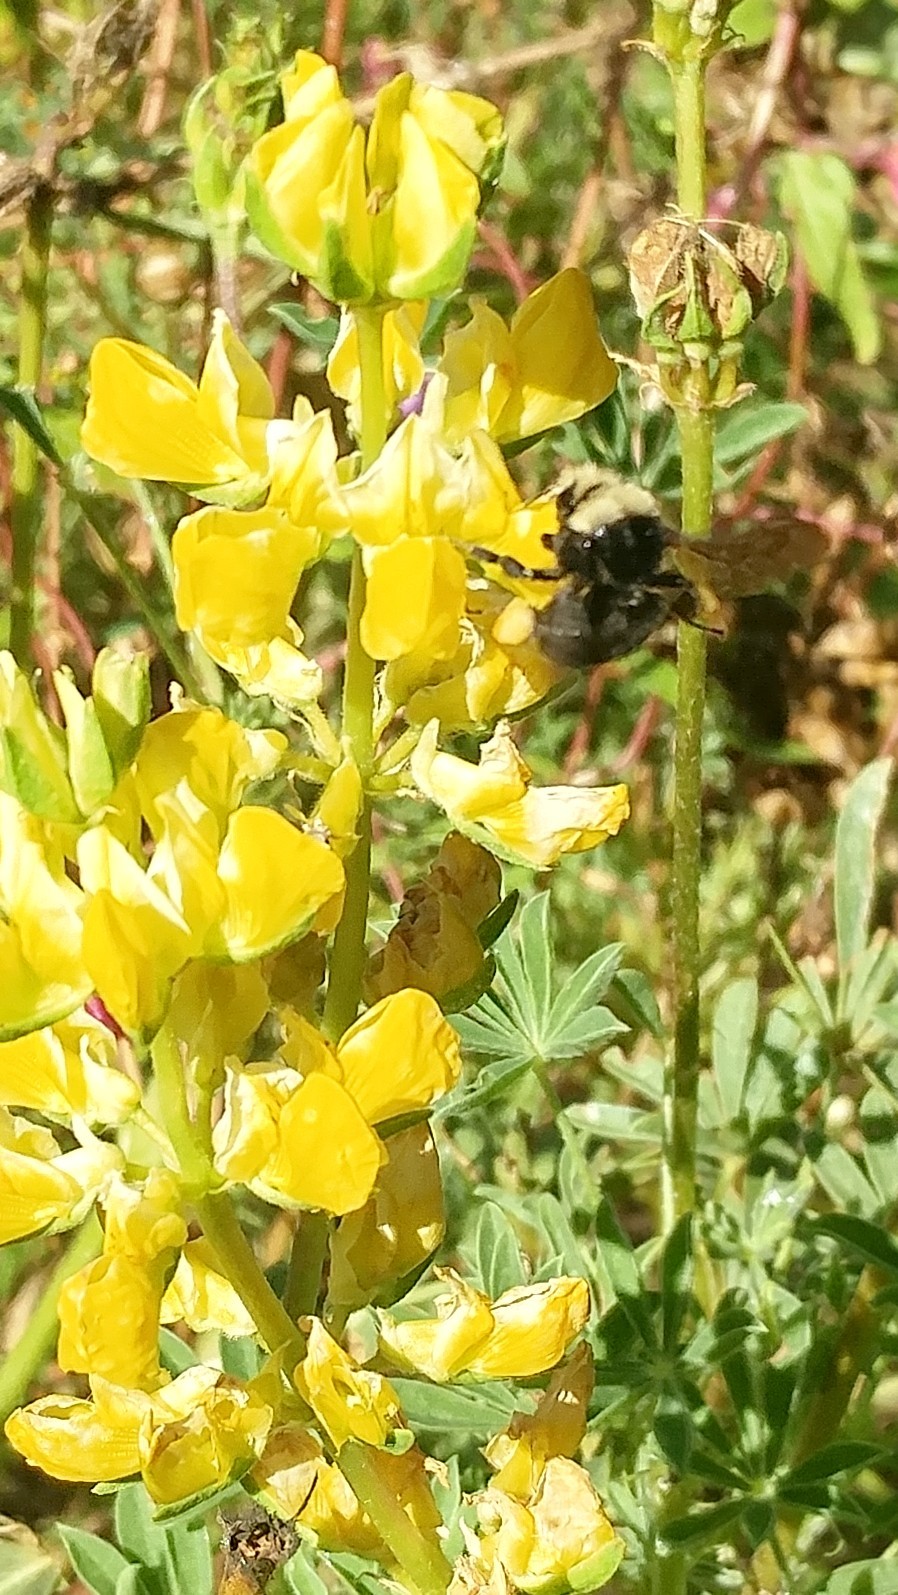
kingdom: Animalia
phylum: Arthropoda
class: Insecta
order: Hymenoptera
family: Apidae
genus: Bombus
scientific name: Bombus vosnesenskii
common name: Vosnesensky bumble bee
